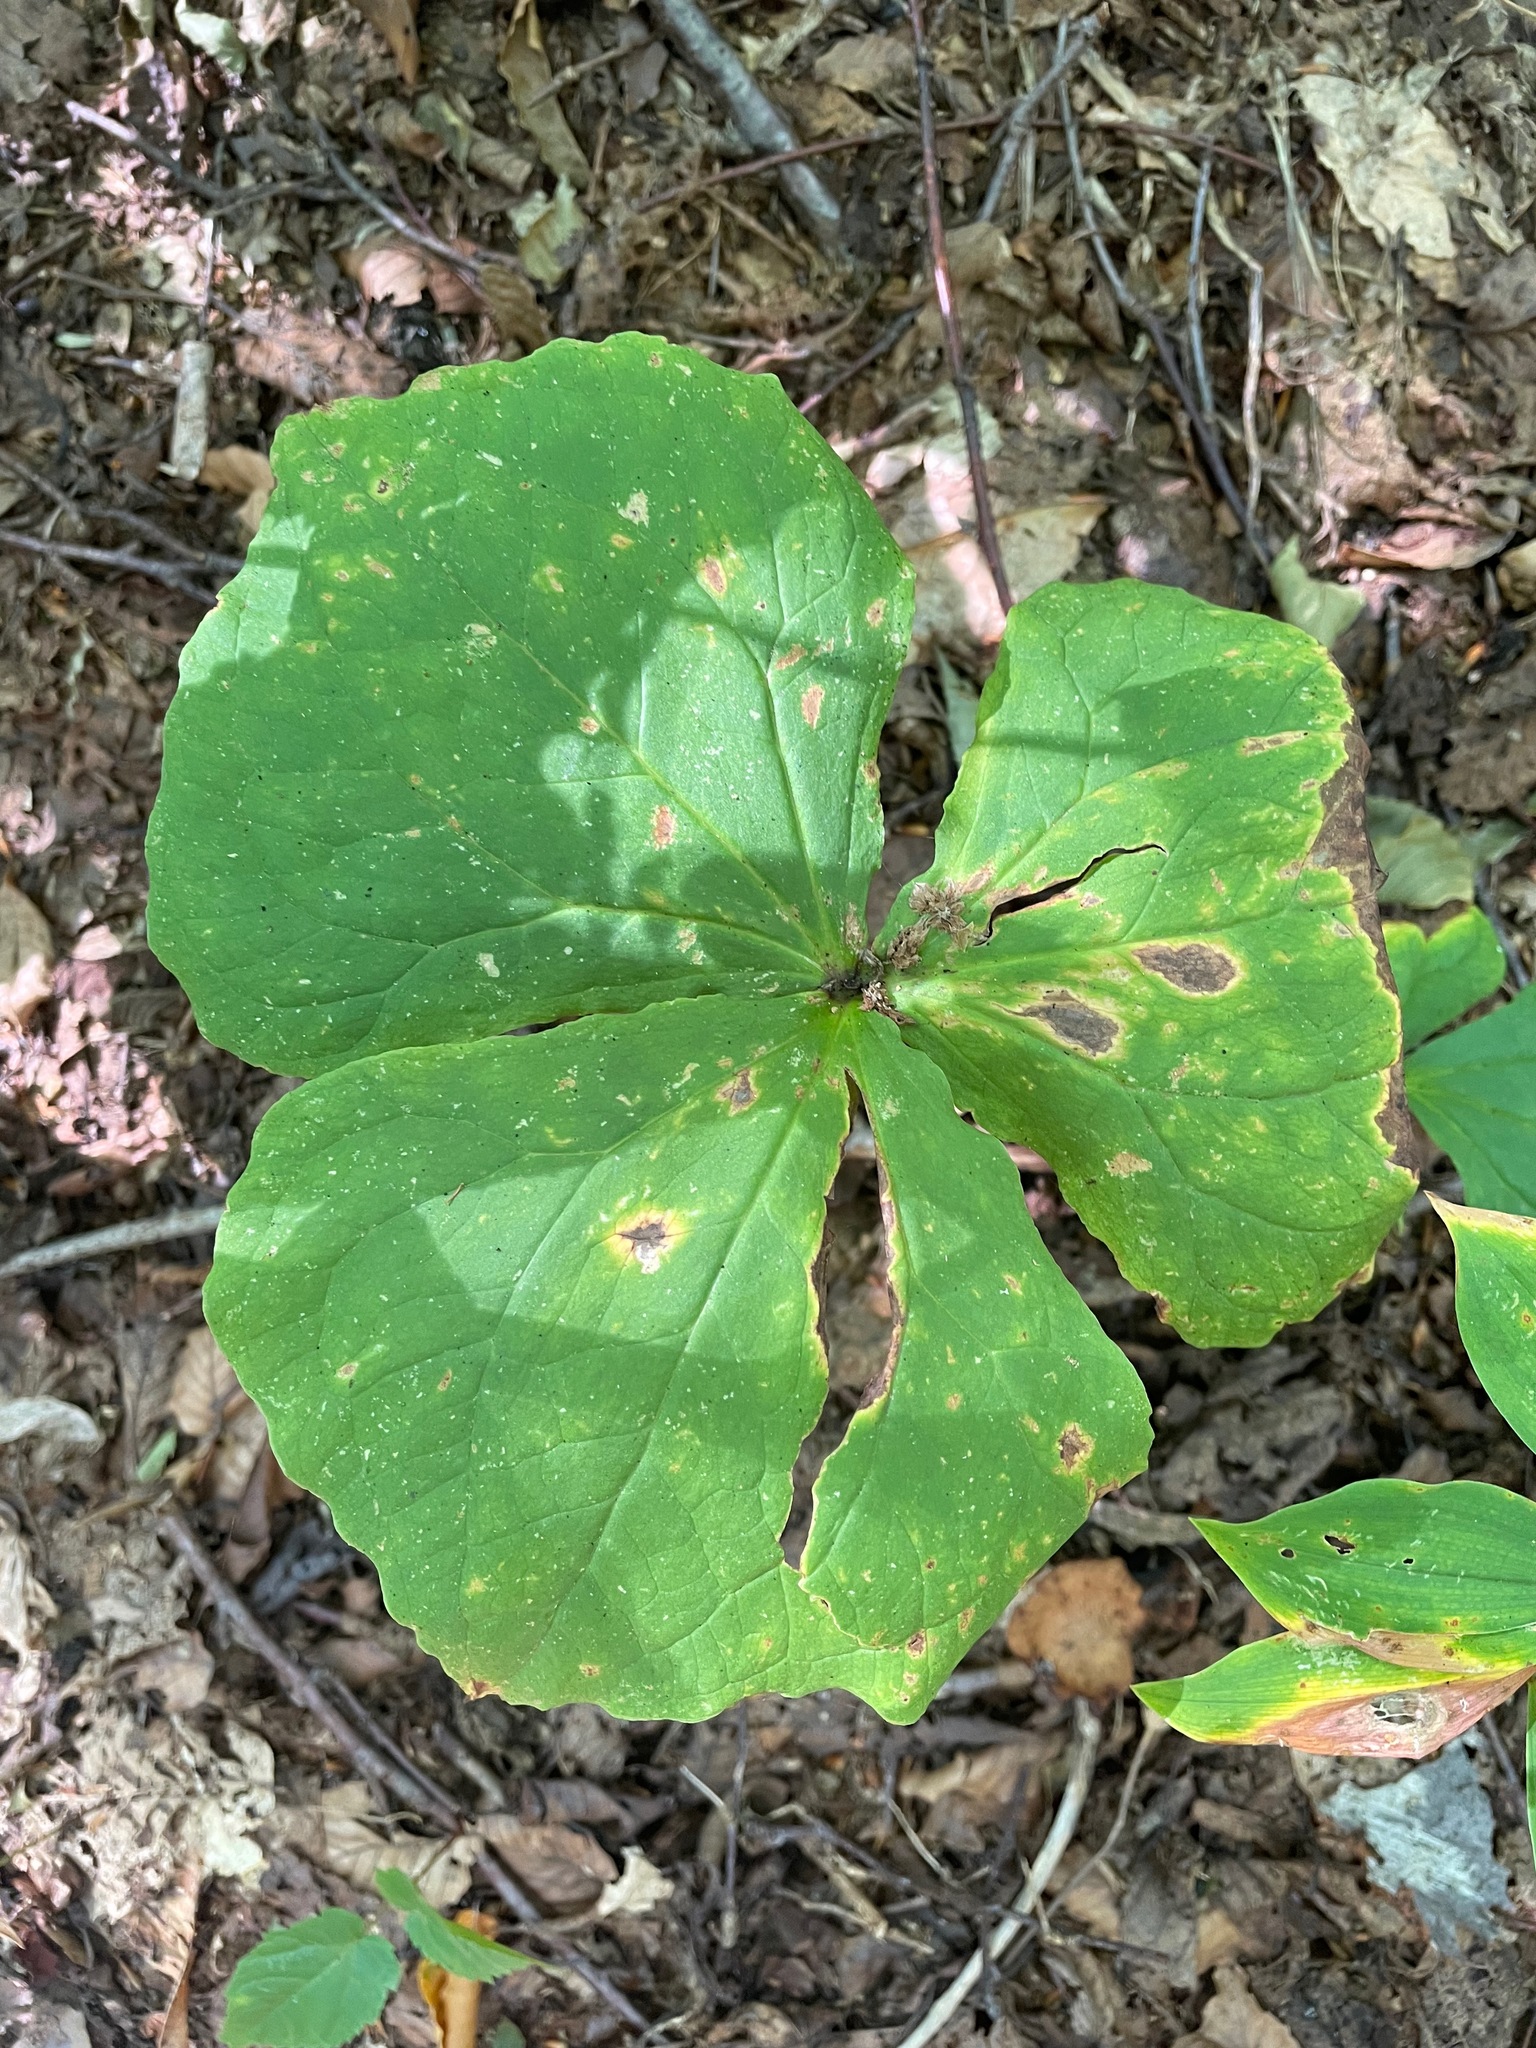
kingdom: Plantae
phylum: Tracheophyta
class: Liliopsida
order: Liliales
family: Melanthiaceae
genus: Trillium
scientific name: Trillium erectum
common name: Purple trillium
